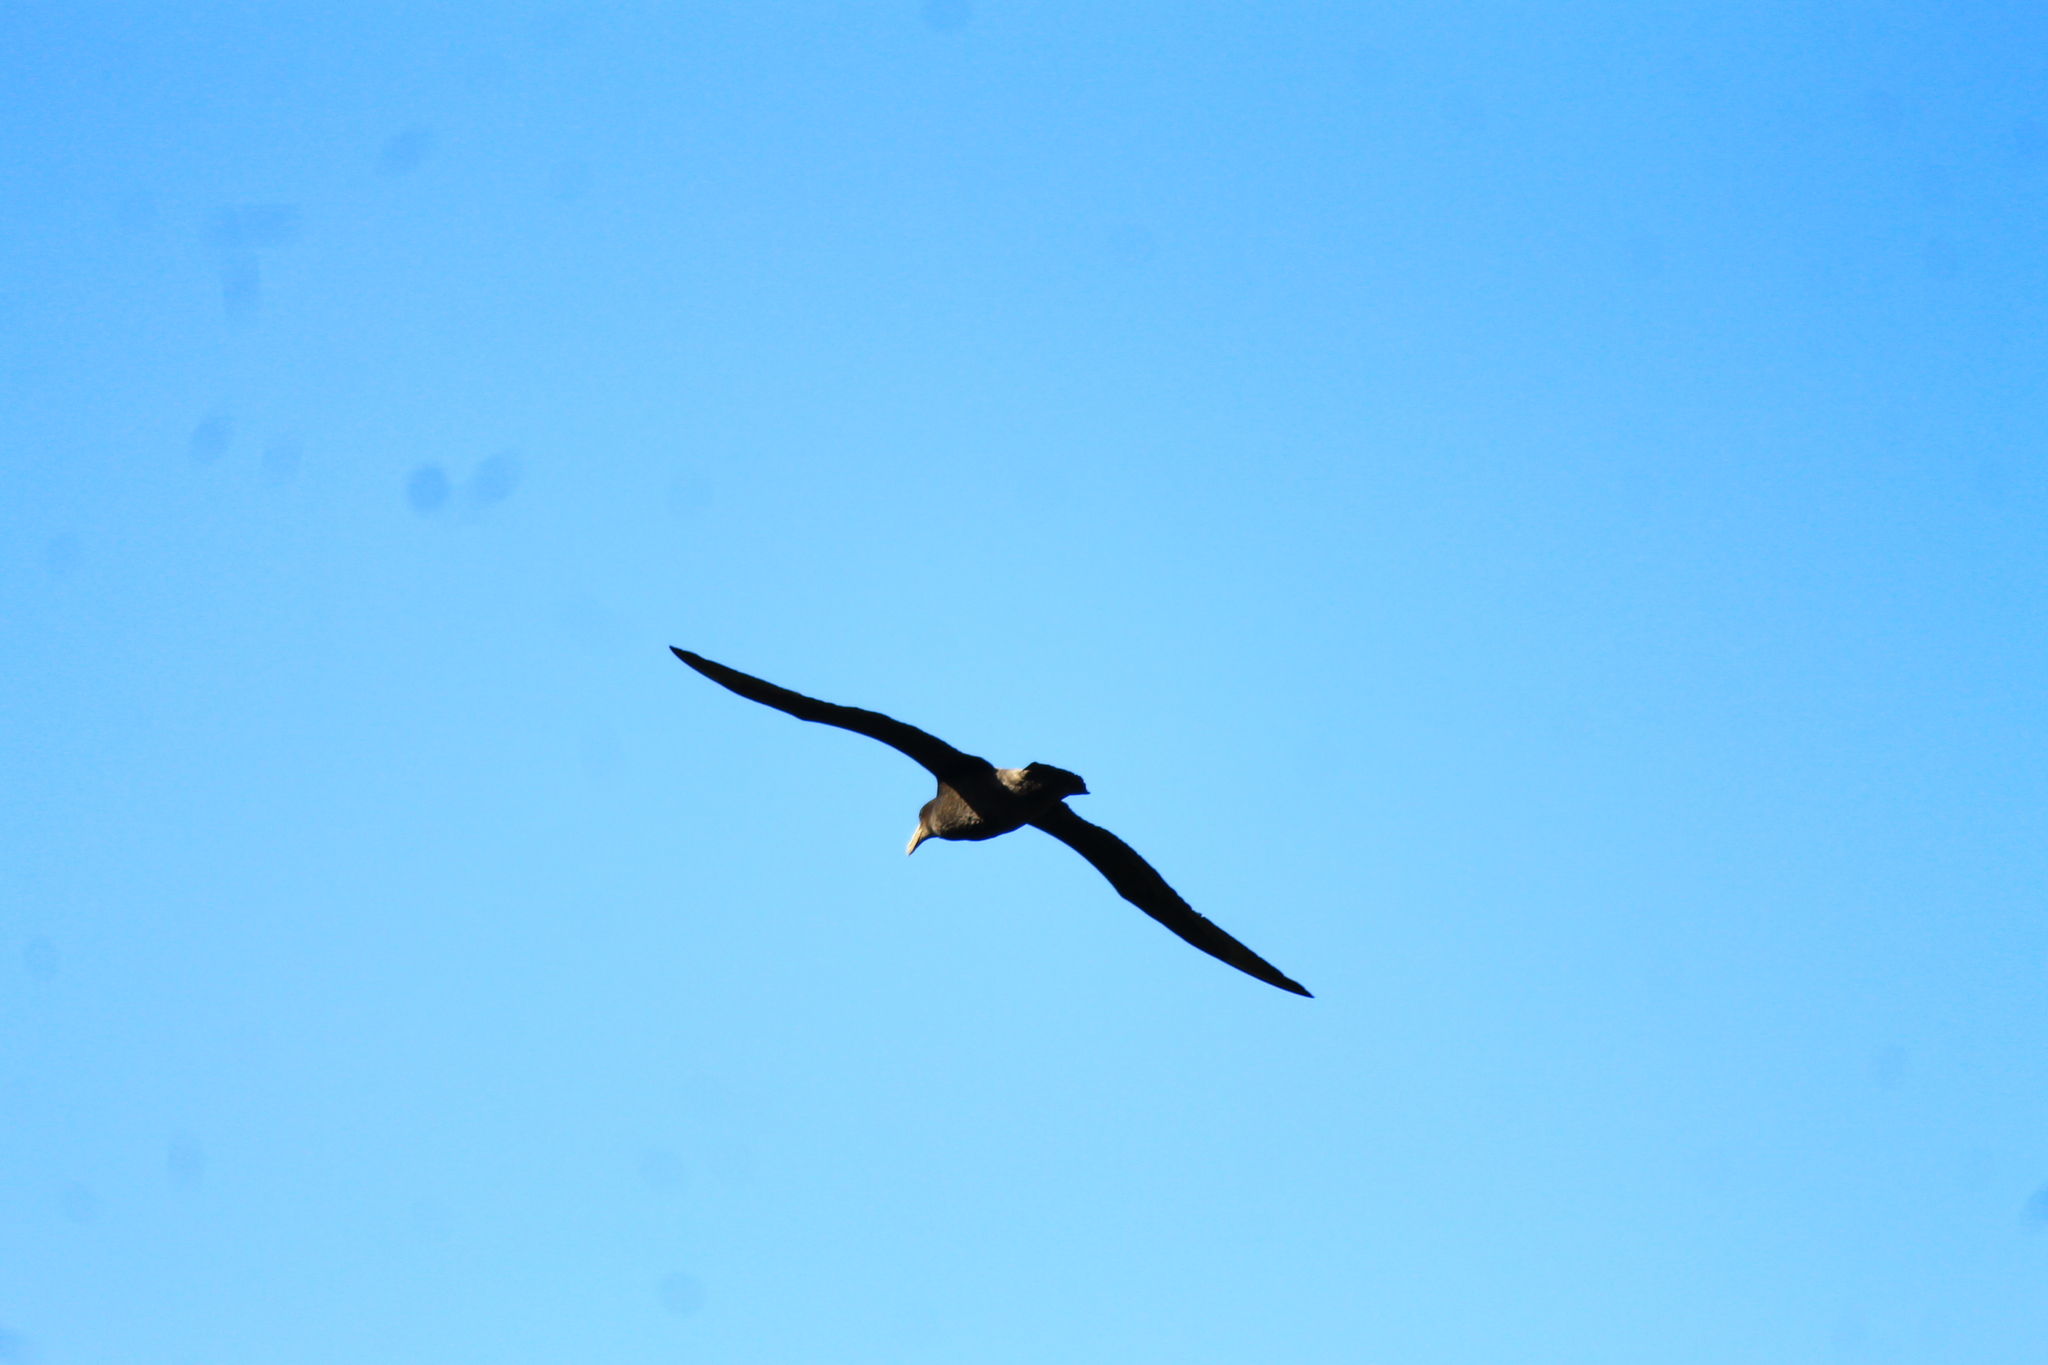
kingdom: Animalia
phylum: Chordata
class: Aves
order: Procellariiformes
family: Procellariidae
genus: Macronectes
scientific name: Macronectes giganteus
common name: Southern giant petrel
